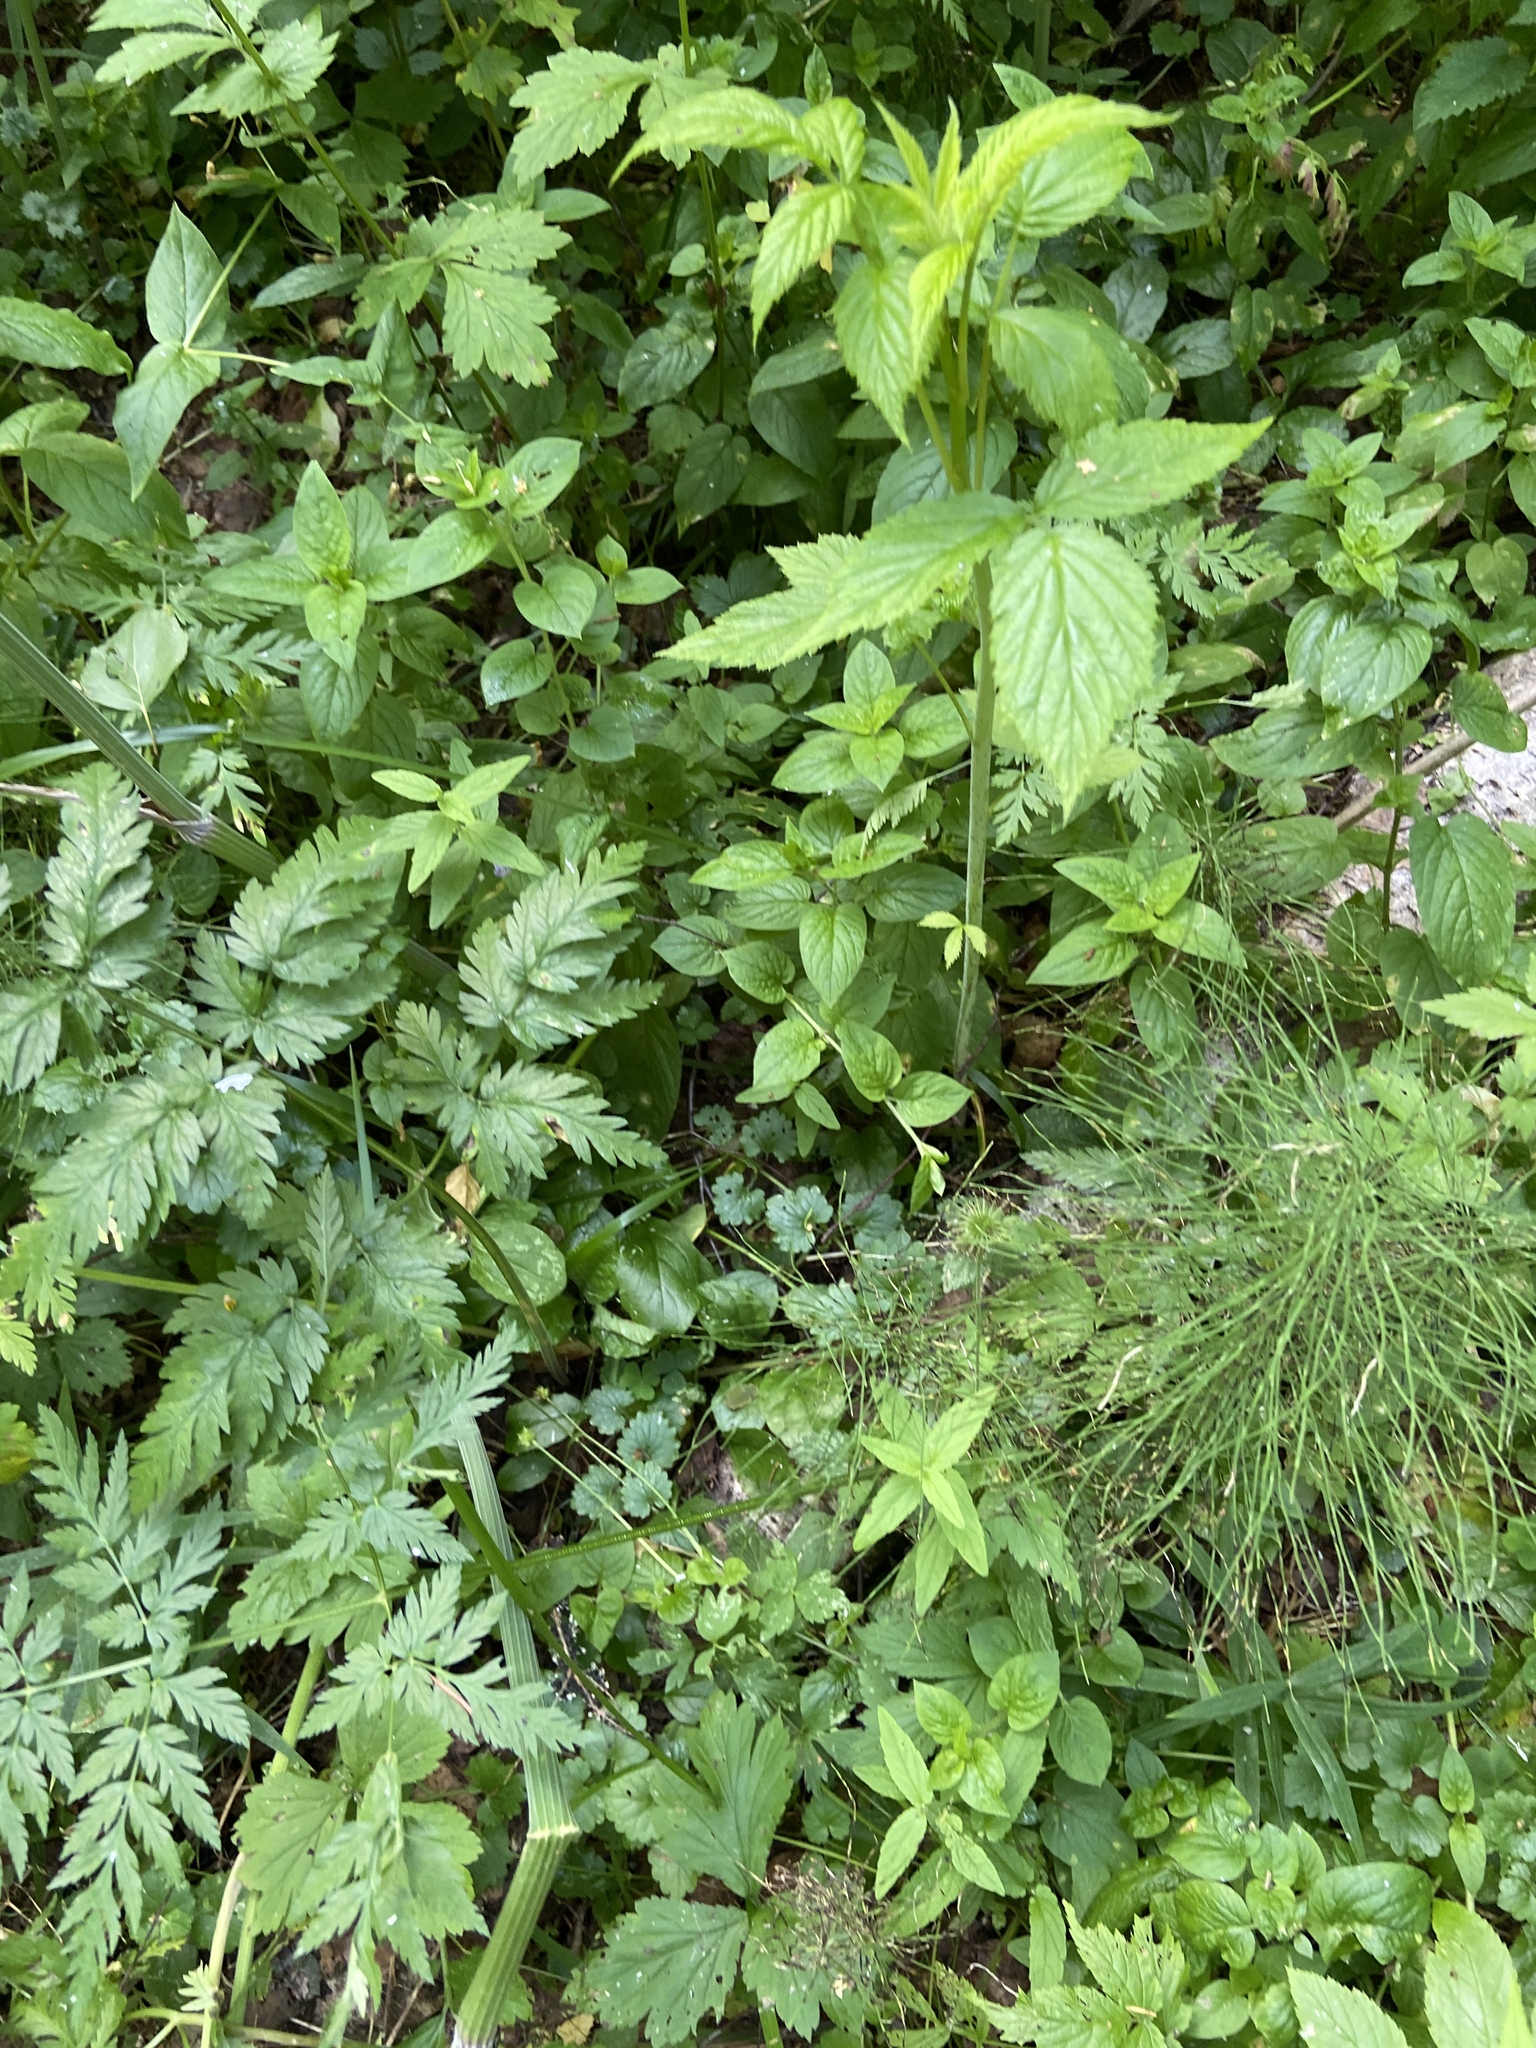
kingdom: Plantae
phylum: Tracheophyta
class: Magnoliopsida
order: Apiales
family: Apiaceae
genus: Anthriscus
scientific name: Anthriscus sylvestris
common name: Cow parsley
